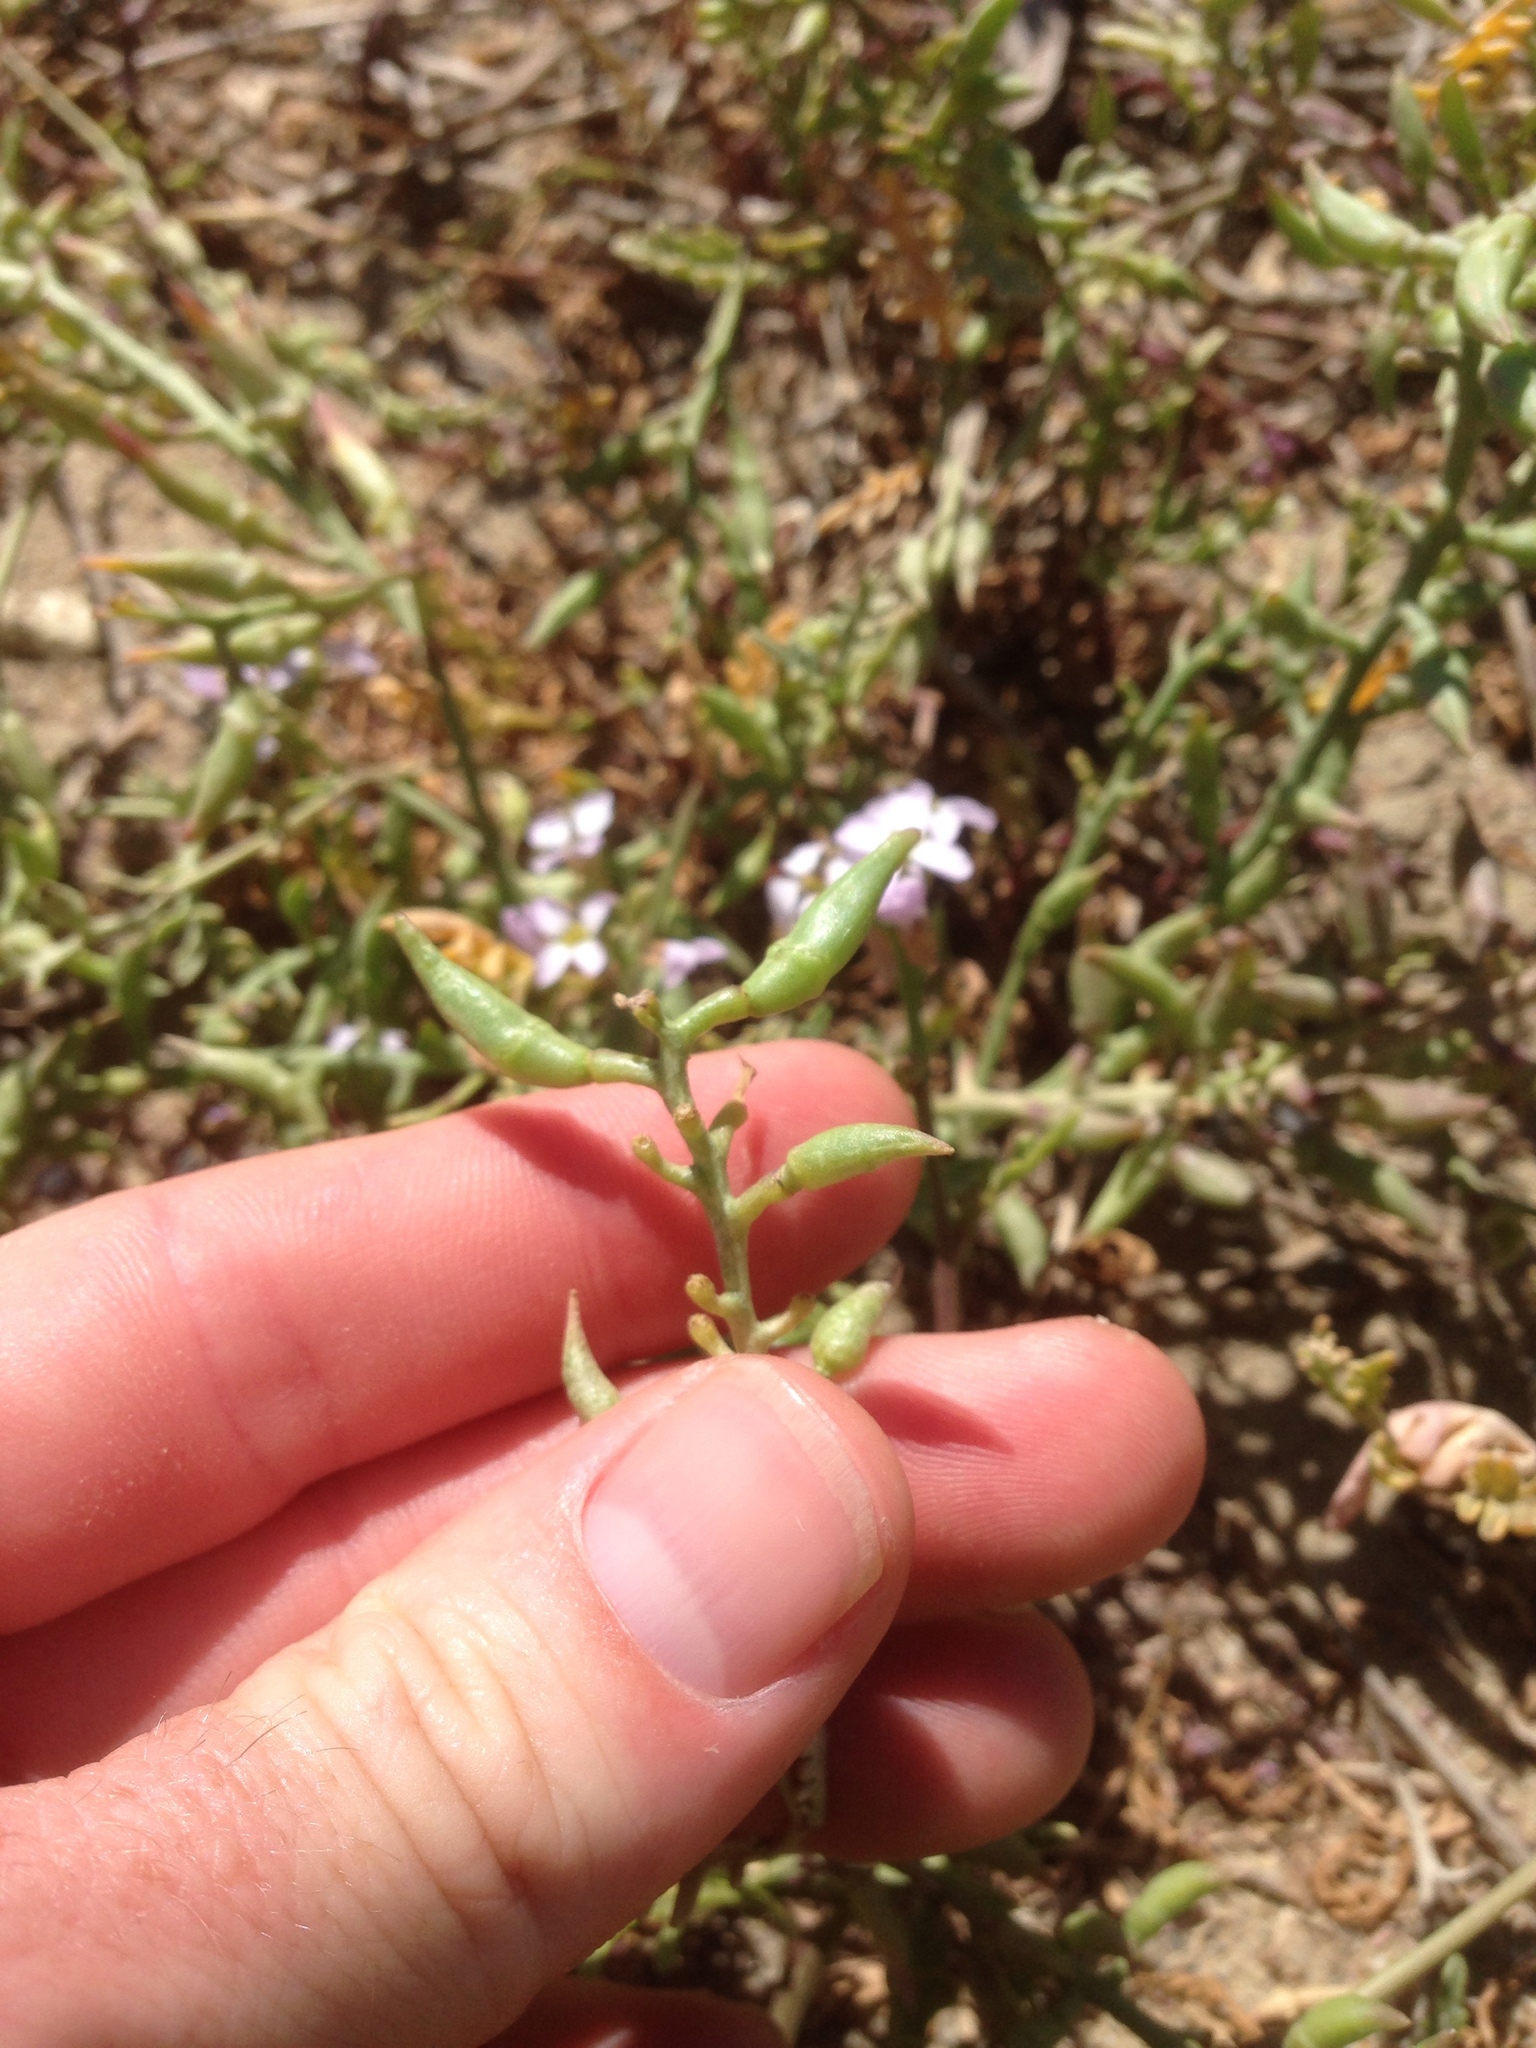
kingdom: Plantae
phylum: Tracheophyta
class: Magnoliopsida
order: Brassicales
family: Brassicaceae
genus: Cakile
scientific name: Cakile maritima
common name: Sea rocket
